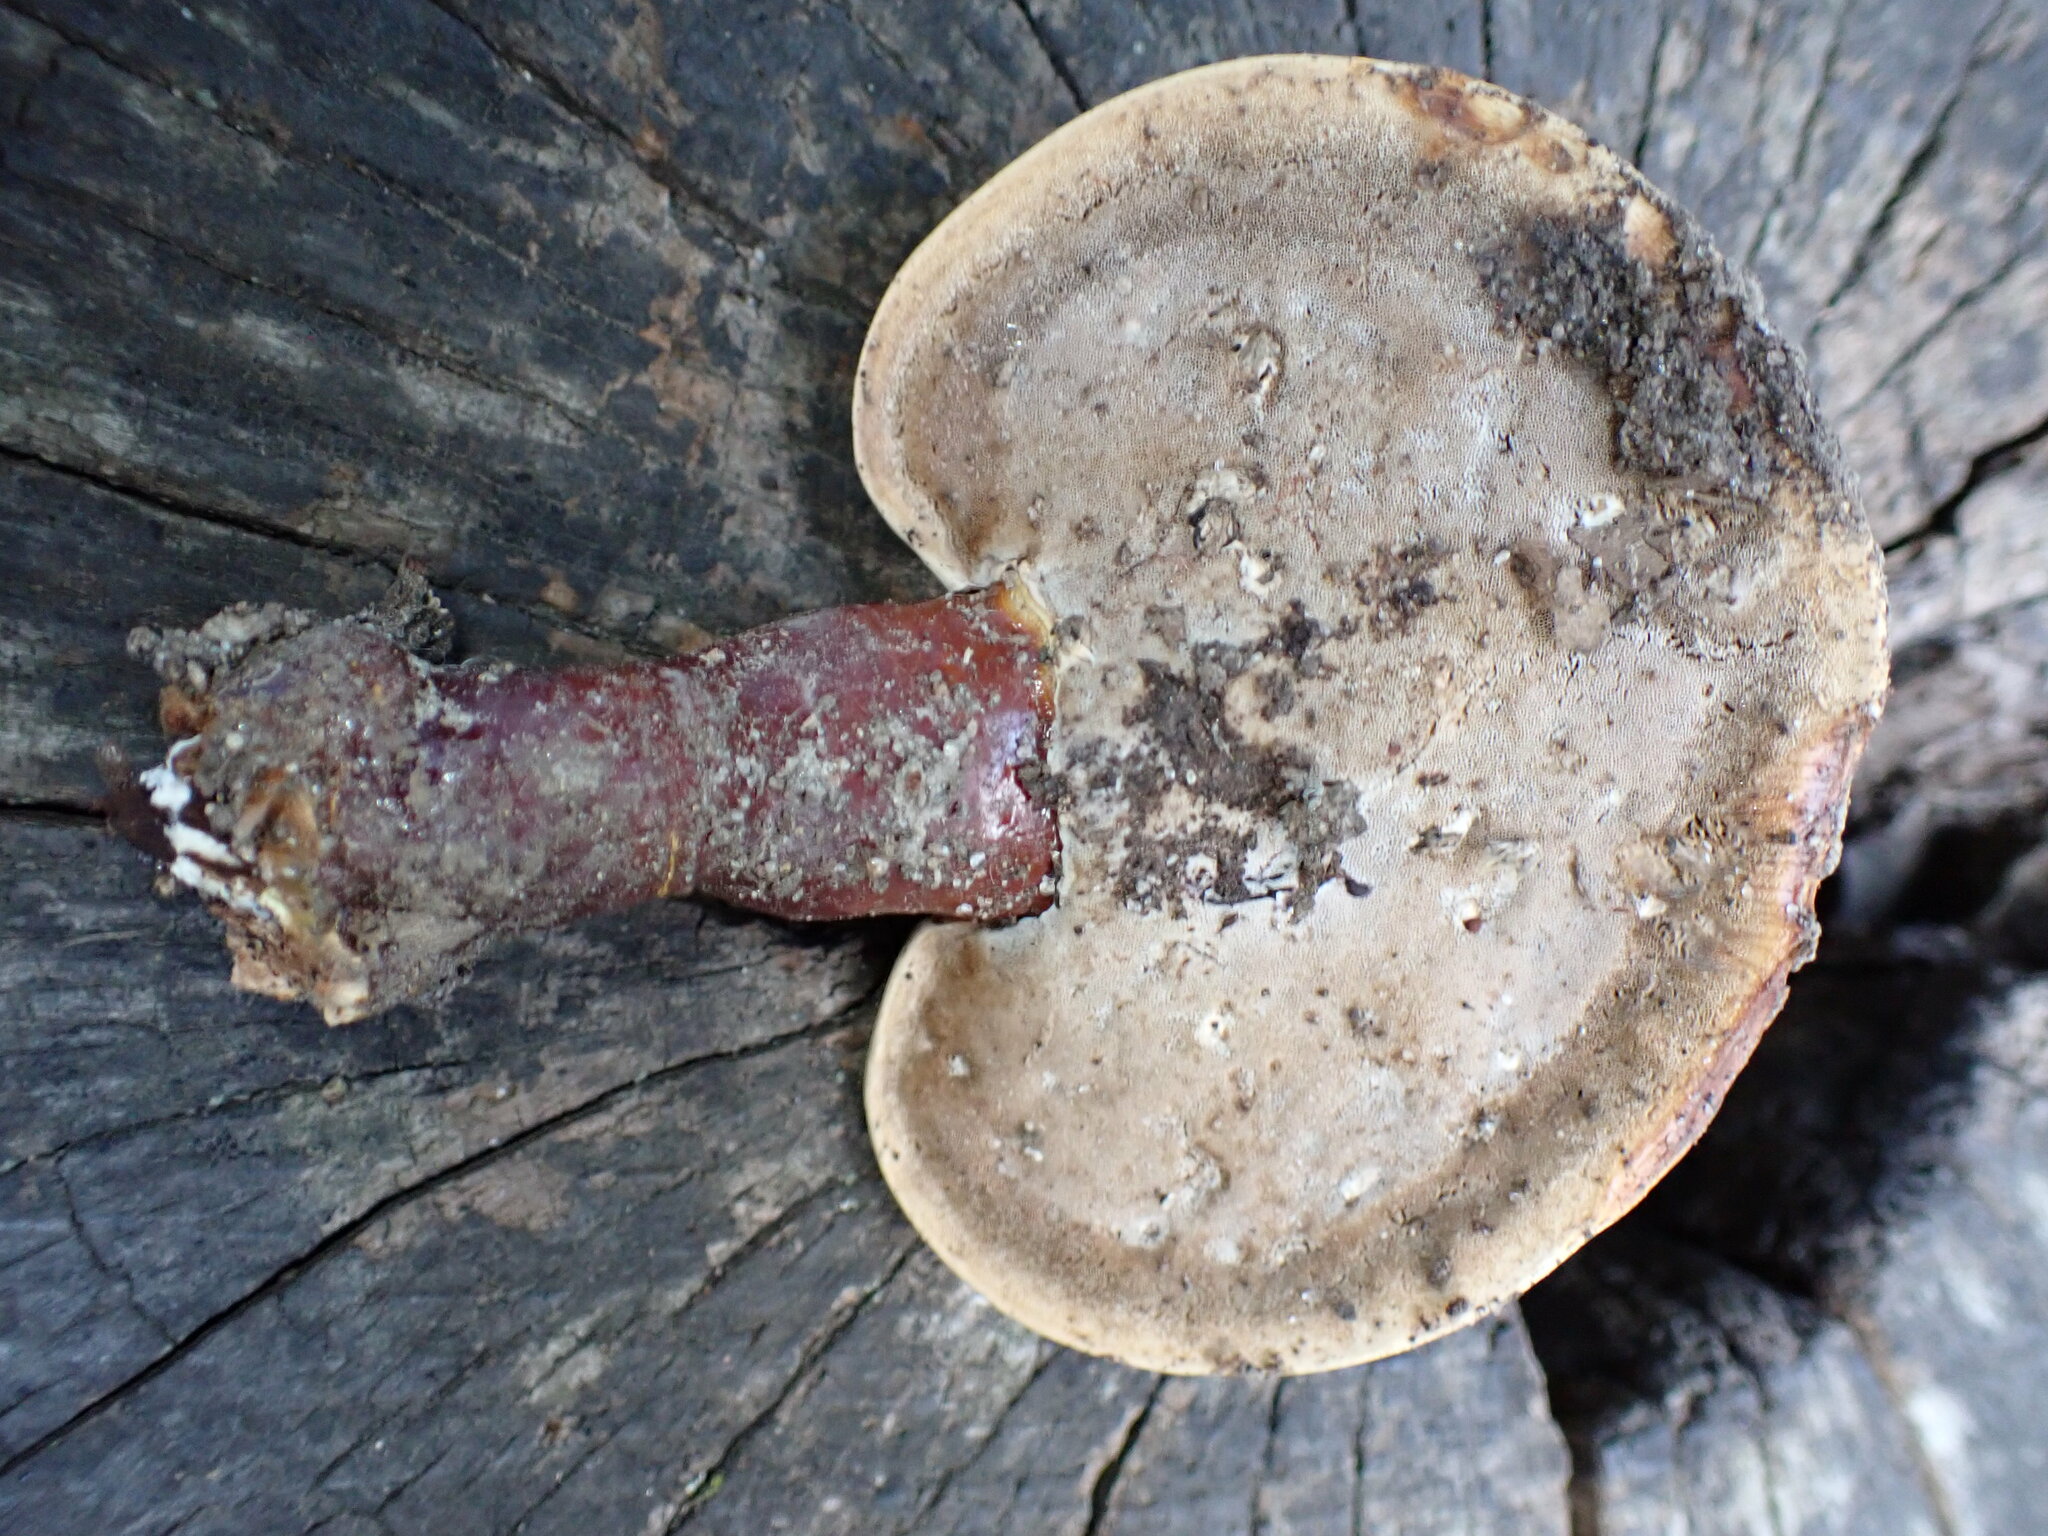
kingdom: Fungi
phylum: Basidiomycota
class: Agaricomycetes
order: Polyporales
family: Polyporaceae
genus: Ganoderma
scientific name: Ganoderma curtisii
